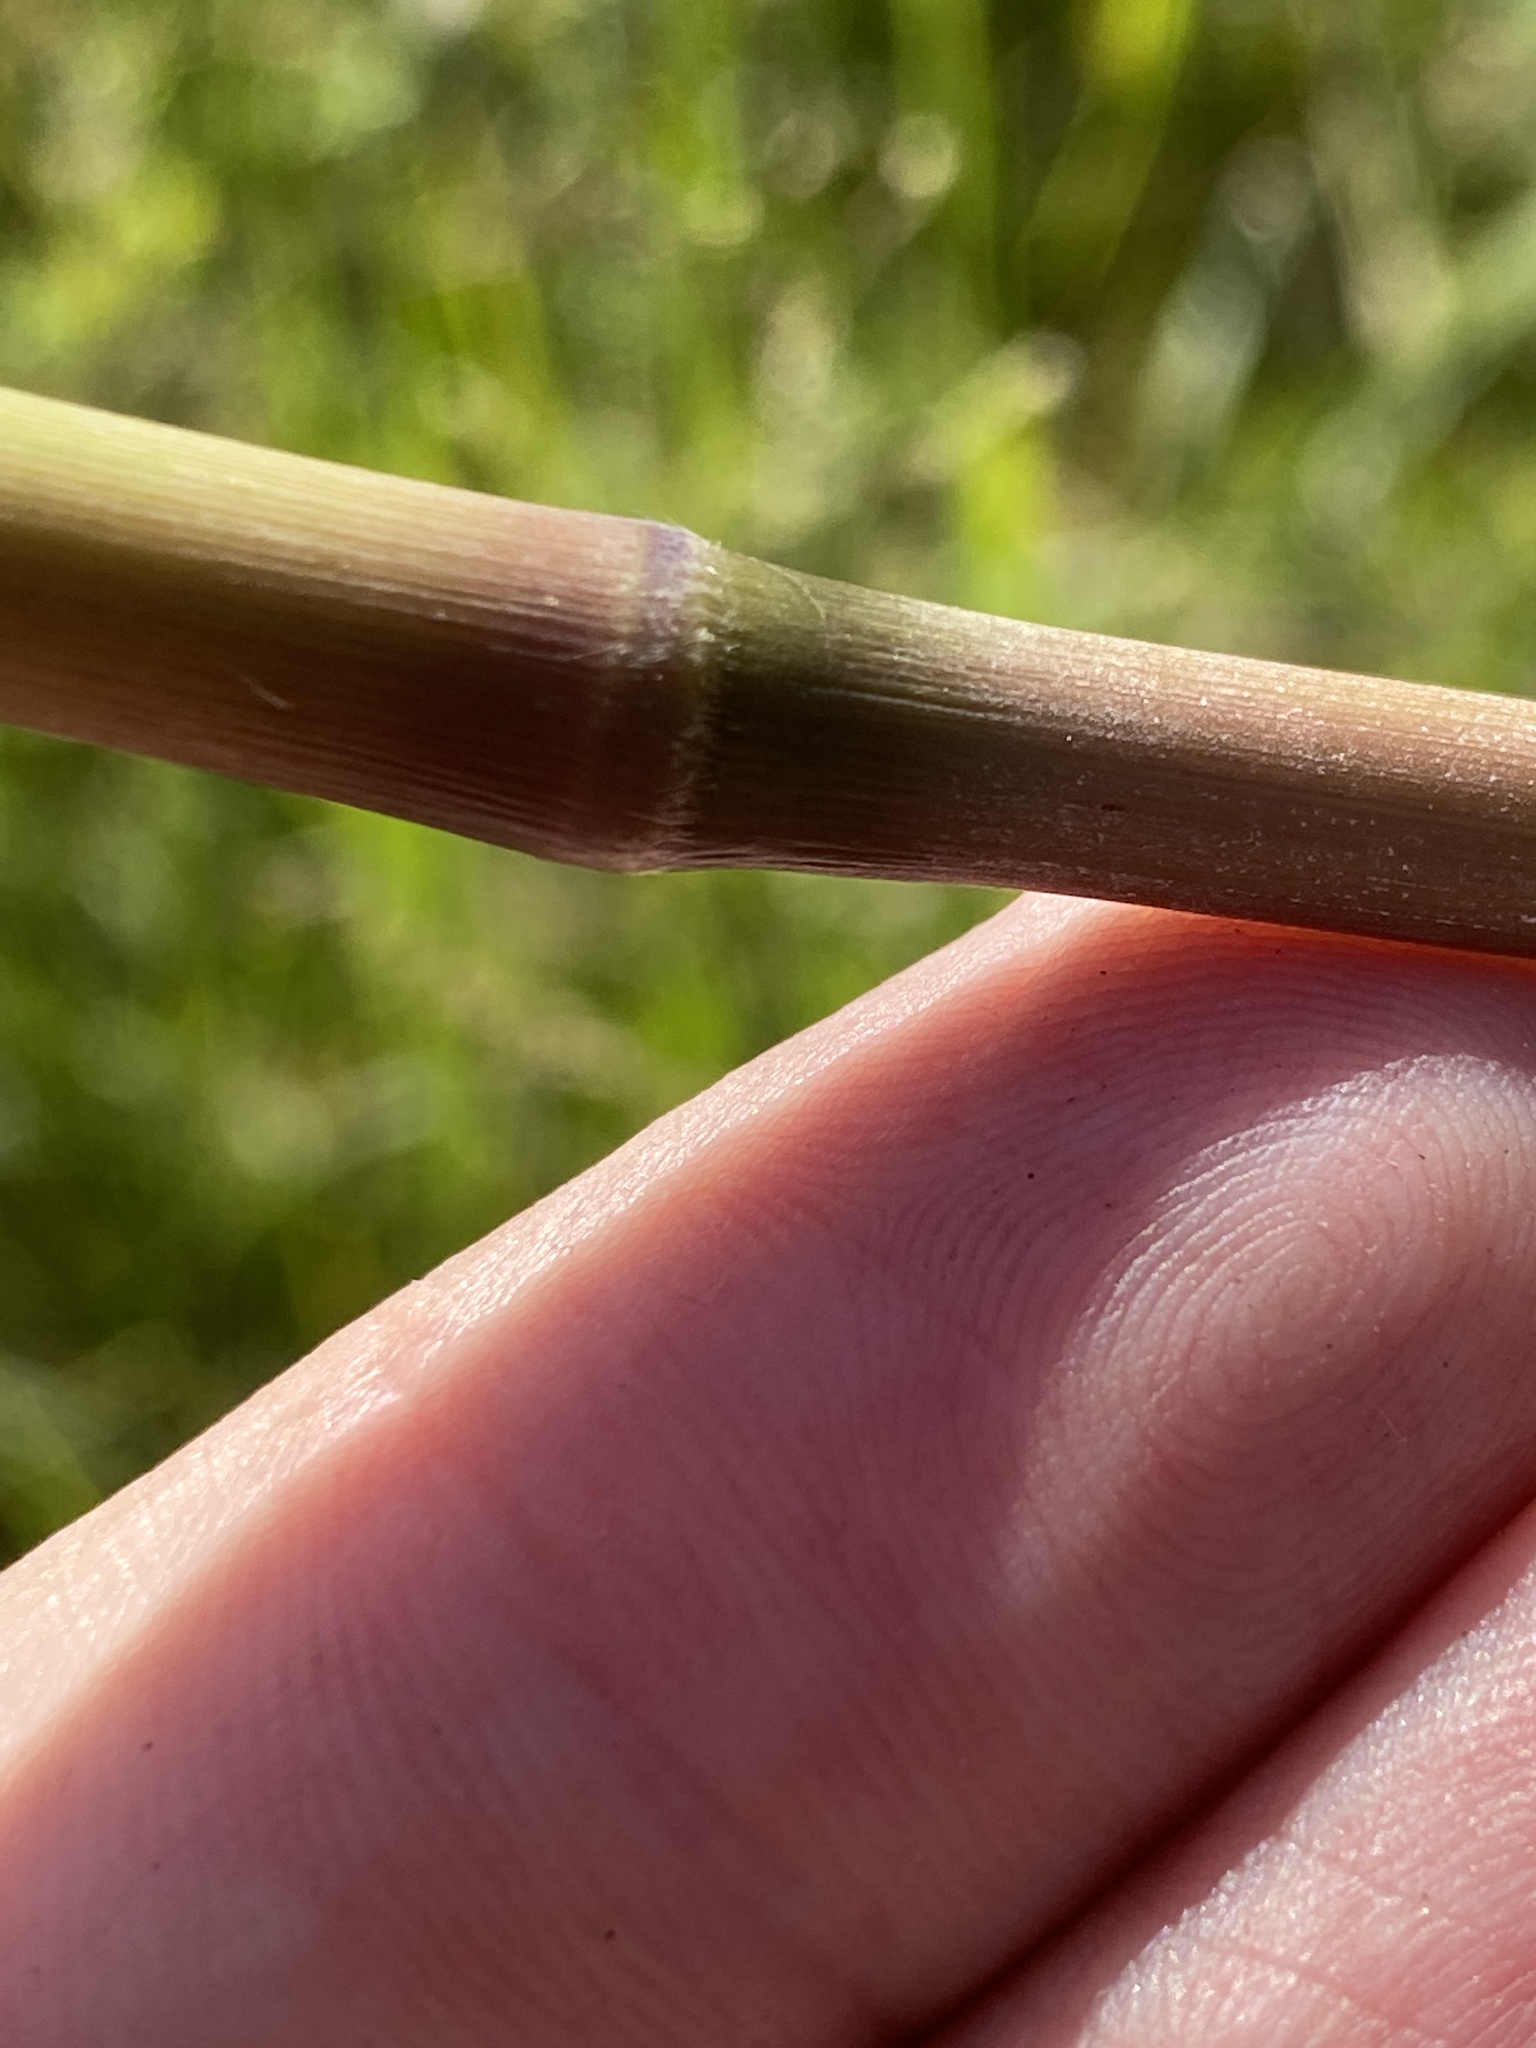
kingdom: Plantae
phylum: Tracheophyta
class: Liliopsida
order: Poales
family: Poaceae
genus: Erianthus
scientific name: Erianthus alopecuroides
